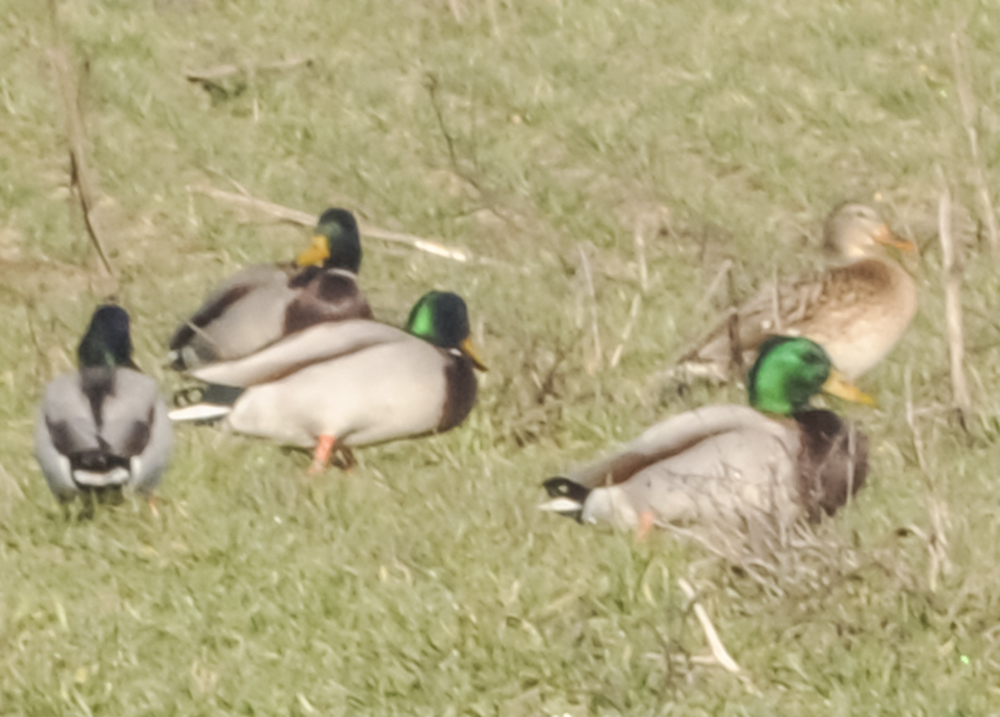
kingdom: Animalia
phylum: Chordata
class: Aves
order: Anseriformes
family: Anatidae
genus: Anas
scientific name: Anas platyrhynchos
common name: Mallard
